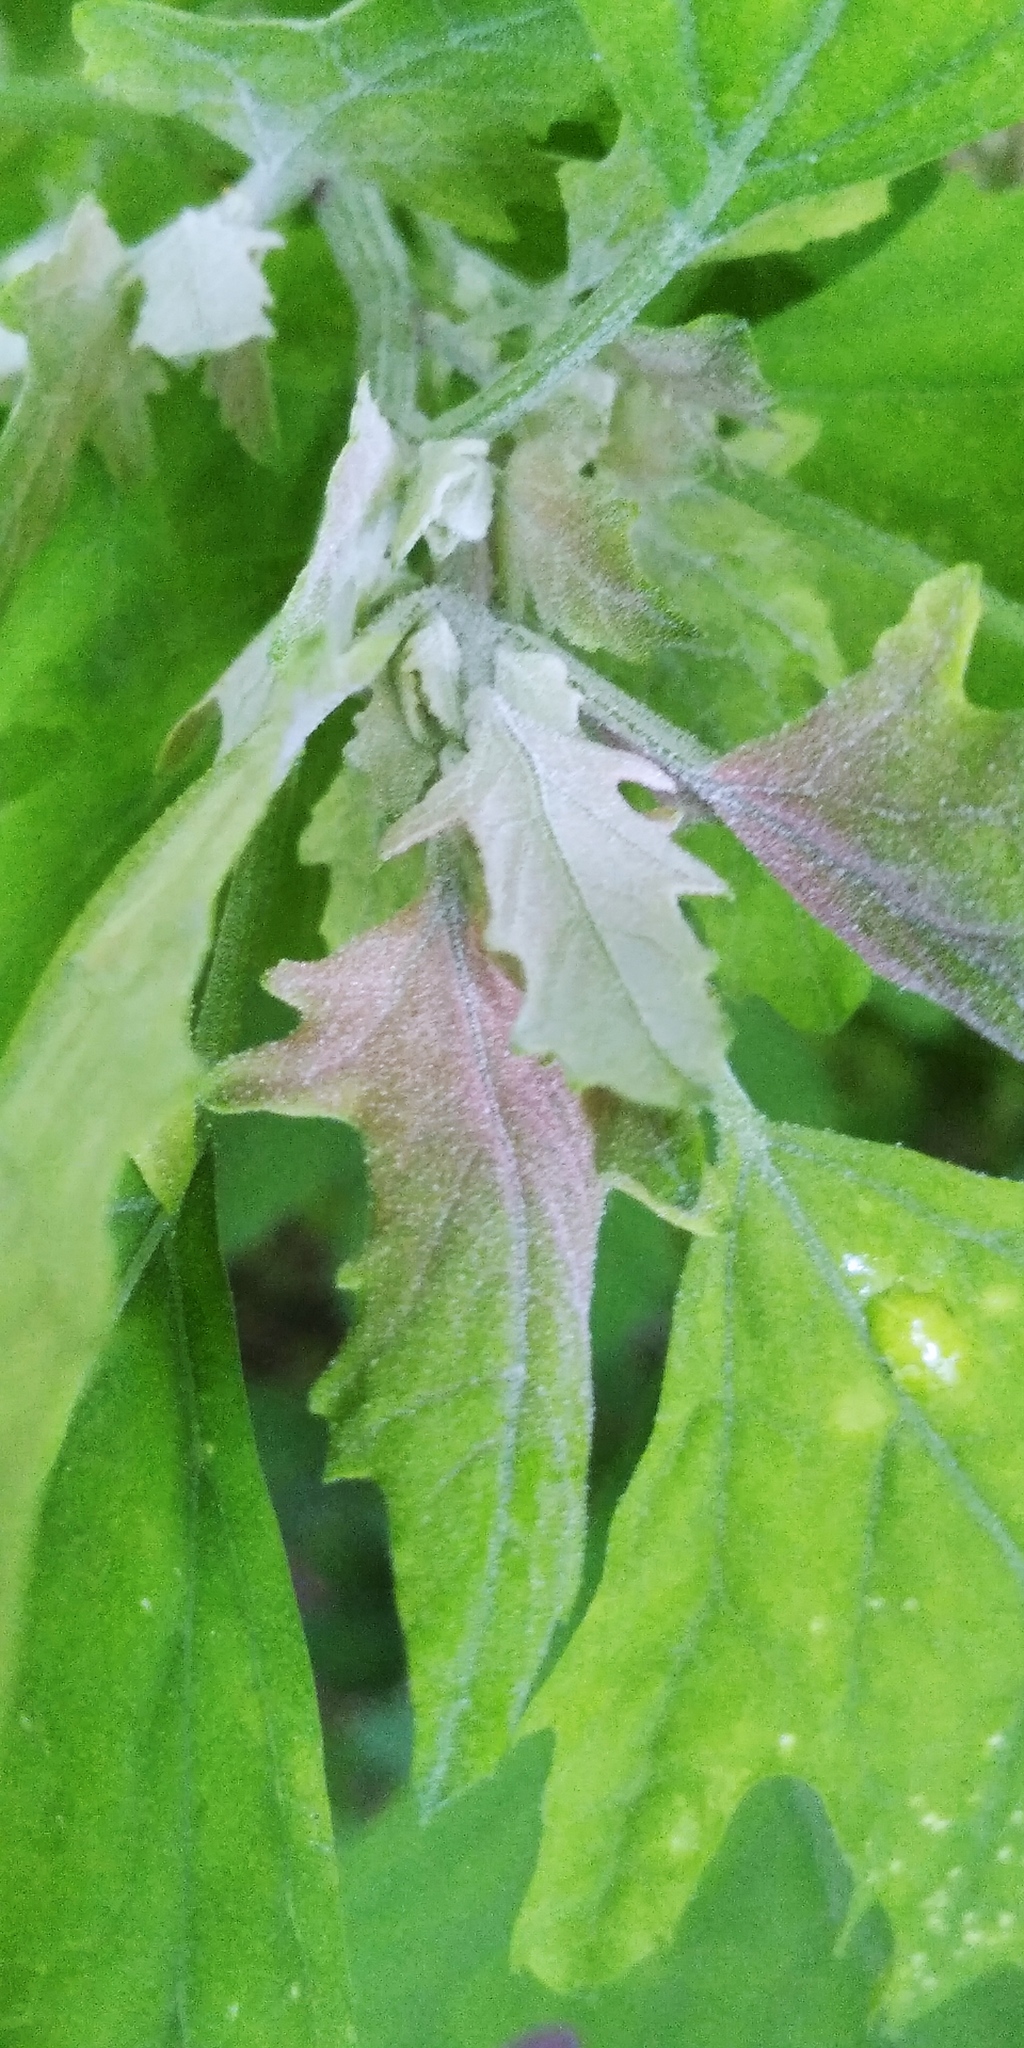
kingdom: Plantae
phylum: Tracheophyta
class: Magnoliopsida
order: Caryophyllales
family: Amaranthaceae
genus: Chenopodium
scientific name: Chenopodium ucrainicum
